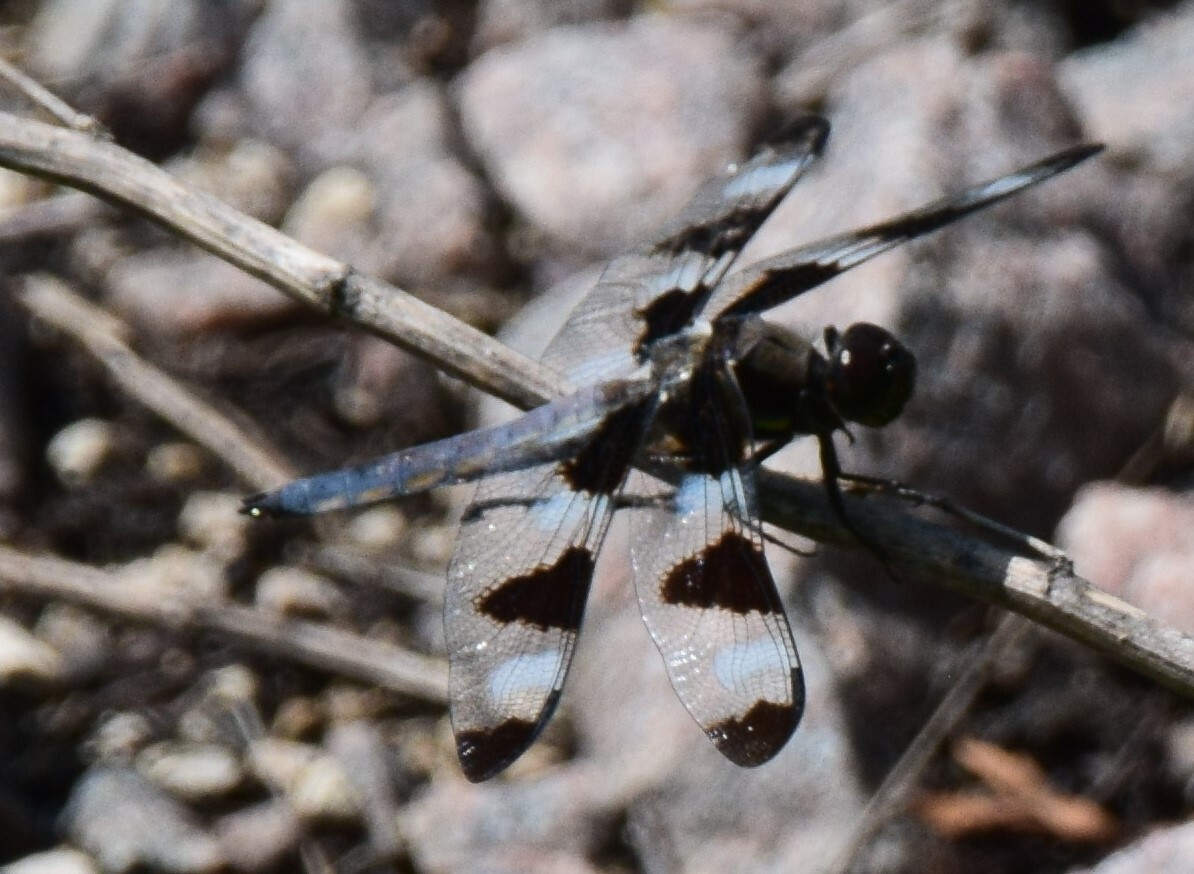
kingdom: Animalia
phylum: Arthropoda
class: Insecta
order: Odonata
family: Libellulidae
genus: Libellula
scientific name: Libellula pulchella
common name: Twelve-spotted skimmer
